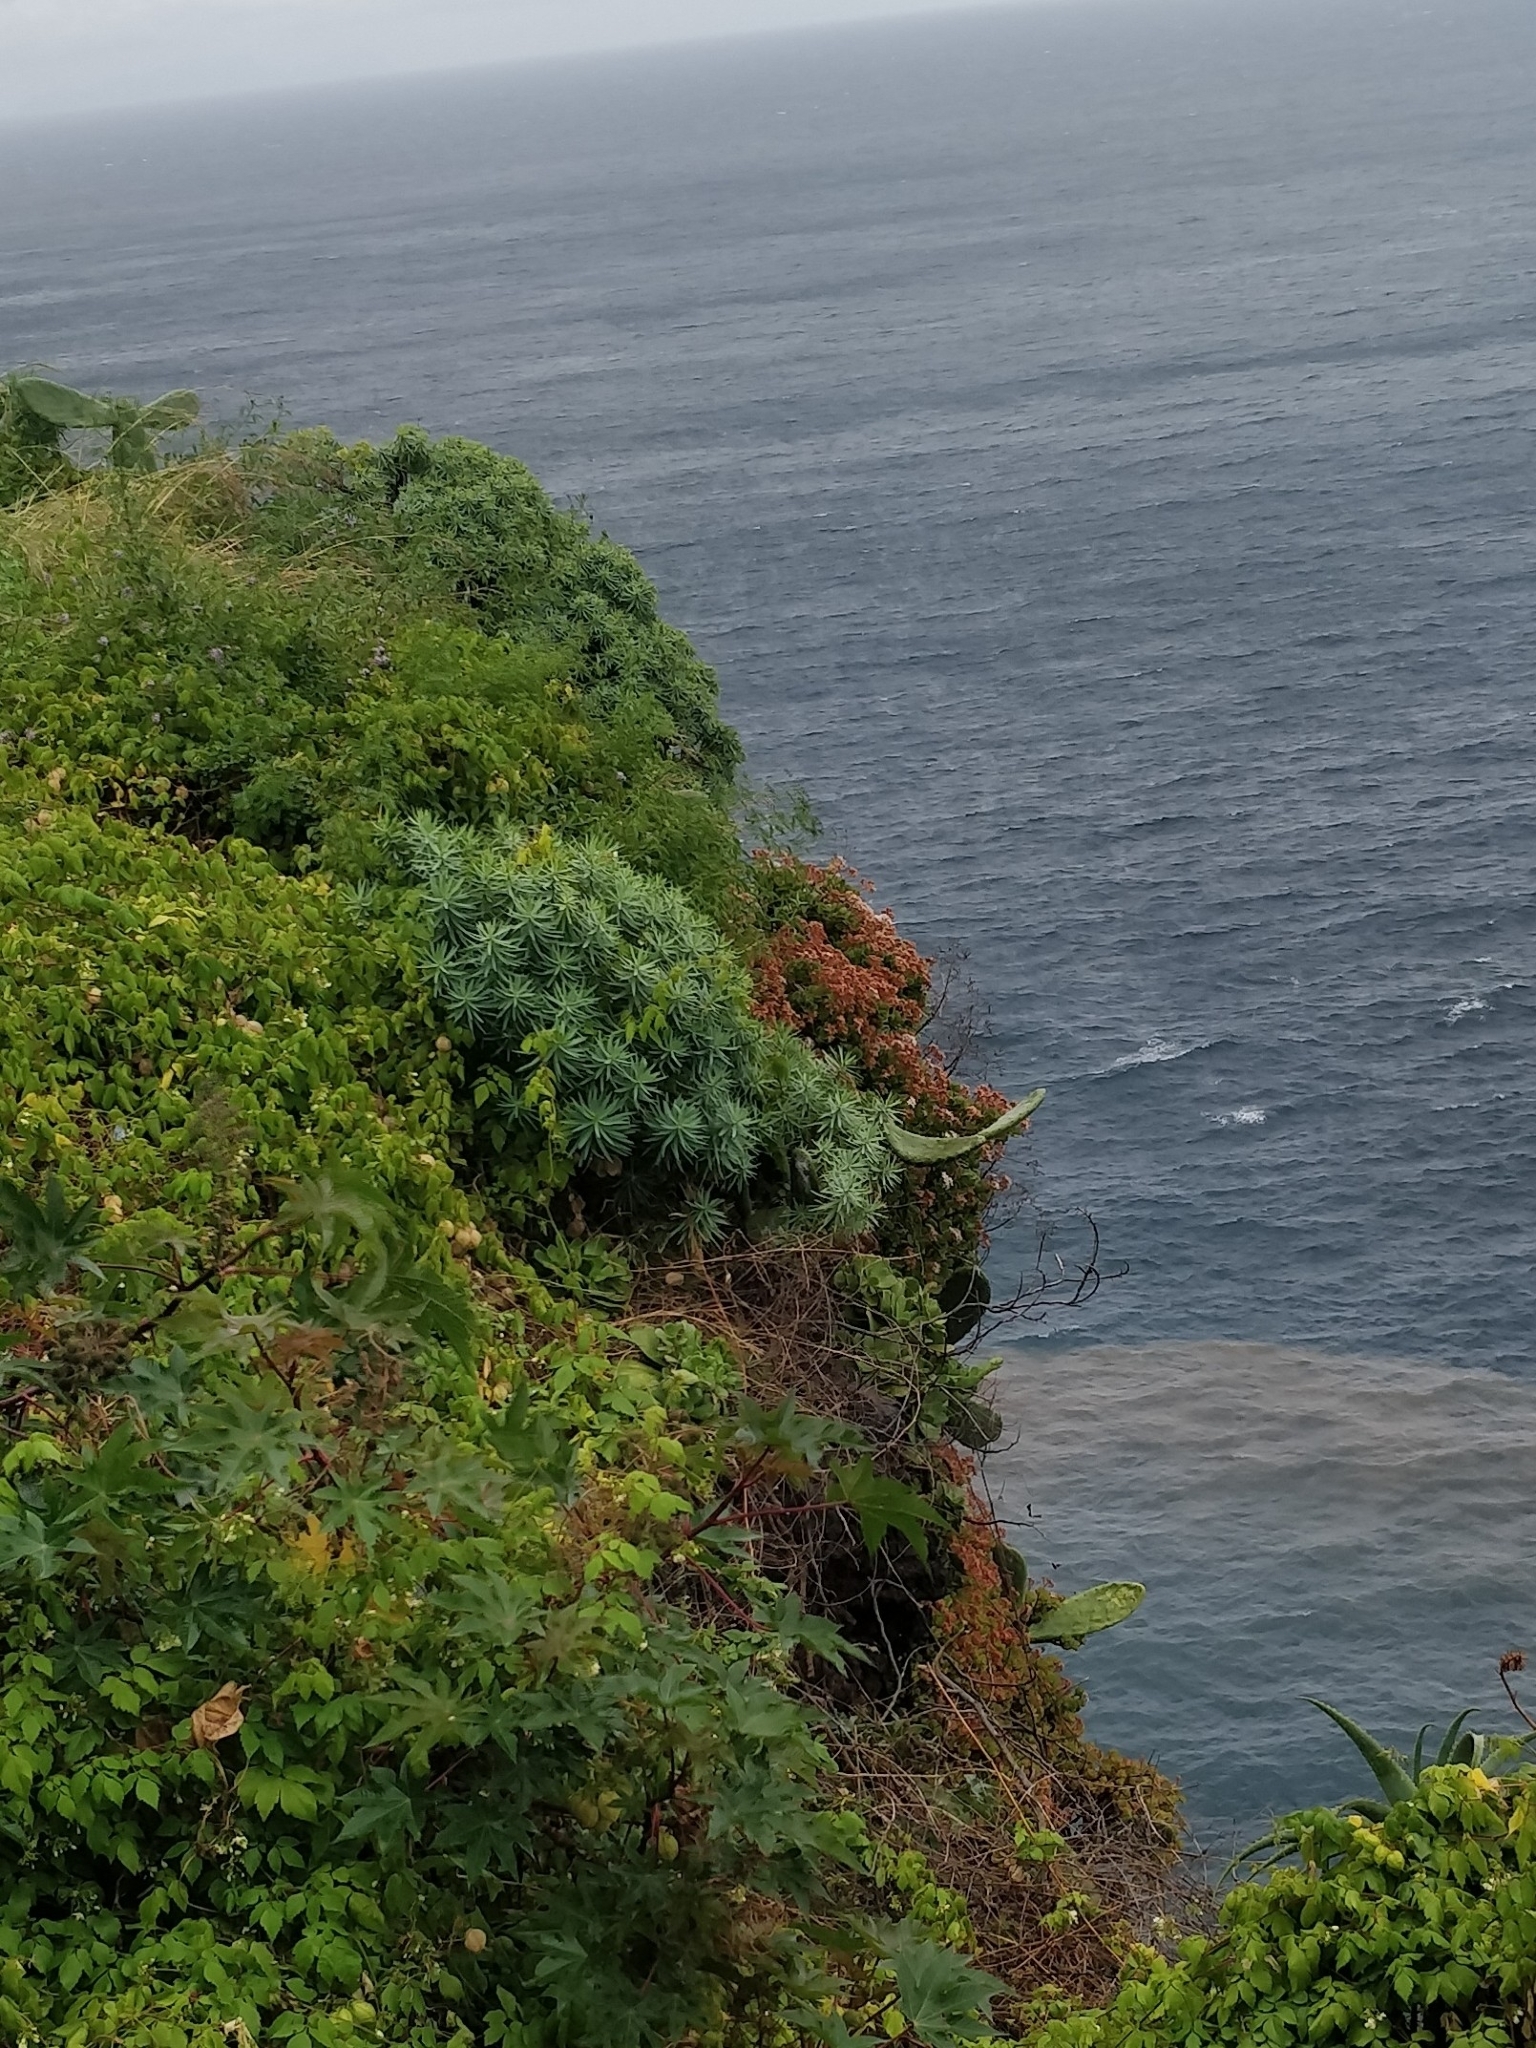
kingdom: Plantae
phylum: Tracheophyta
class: Magnoliopsida
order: Malpighiales
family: Euphorbiaceae
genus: Euphorbia
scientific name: Euphorbia piscatoria
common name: Fish-stunning spurge
